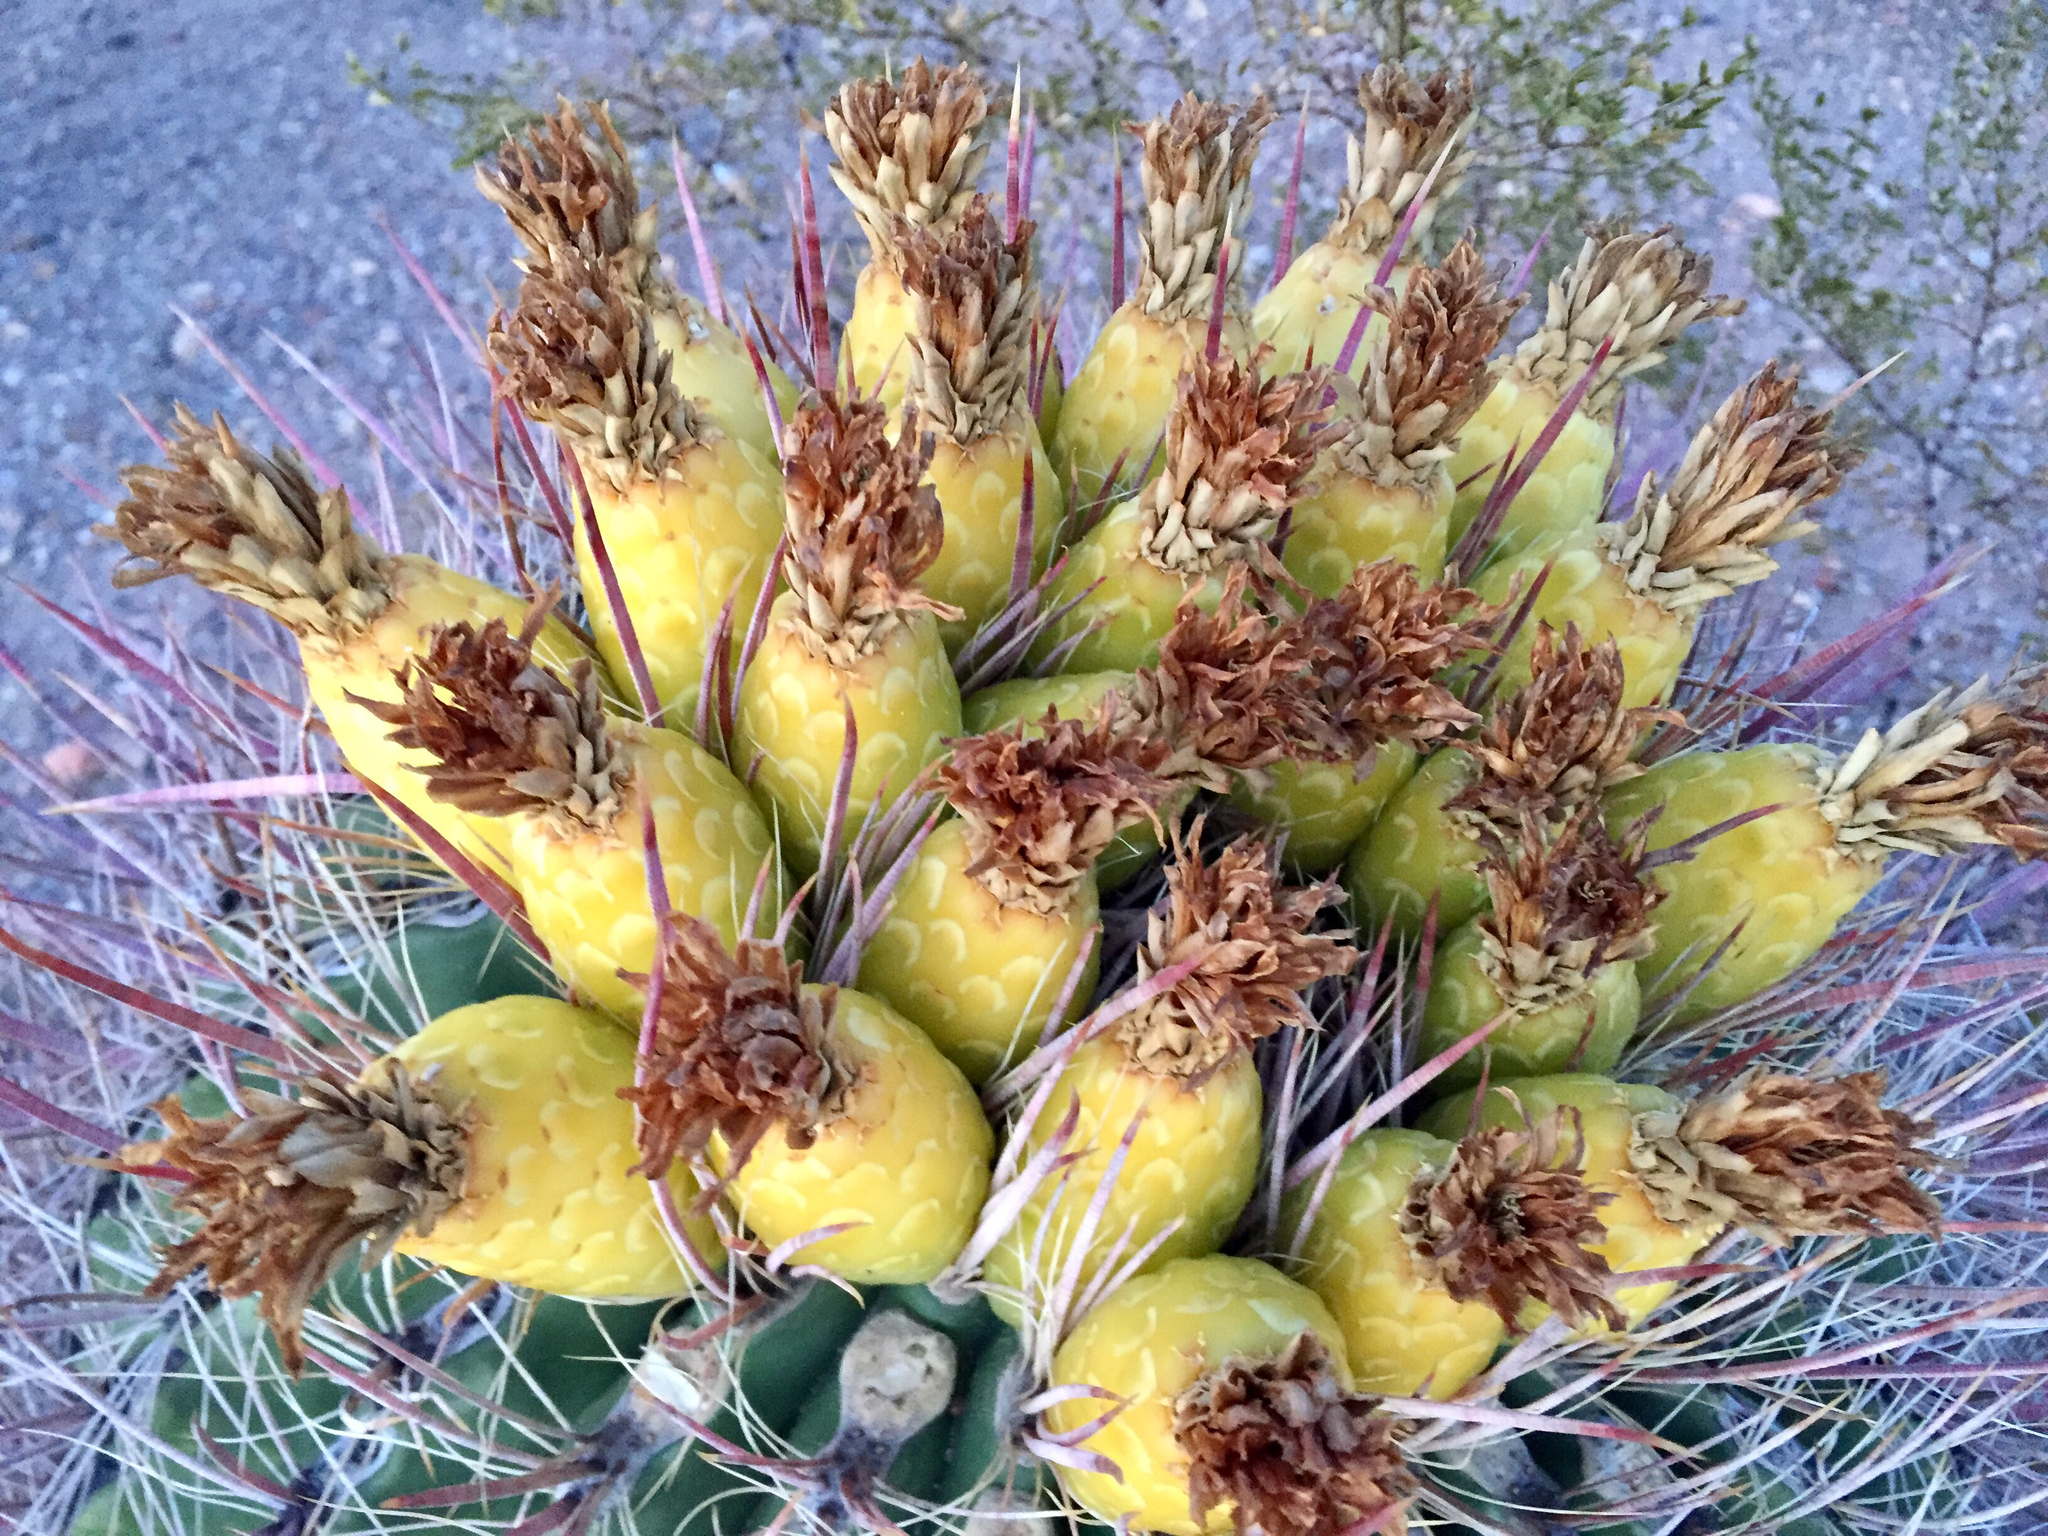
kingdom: Plantae
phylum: Tracheophyta
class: Magnoliopsida
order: Caryophyllales
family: Cactaceae
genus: Ferocactus
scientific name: Ferocactus wislizeni
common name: Candy barrel cactus
